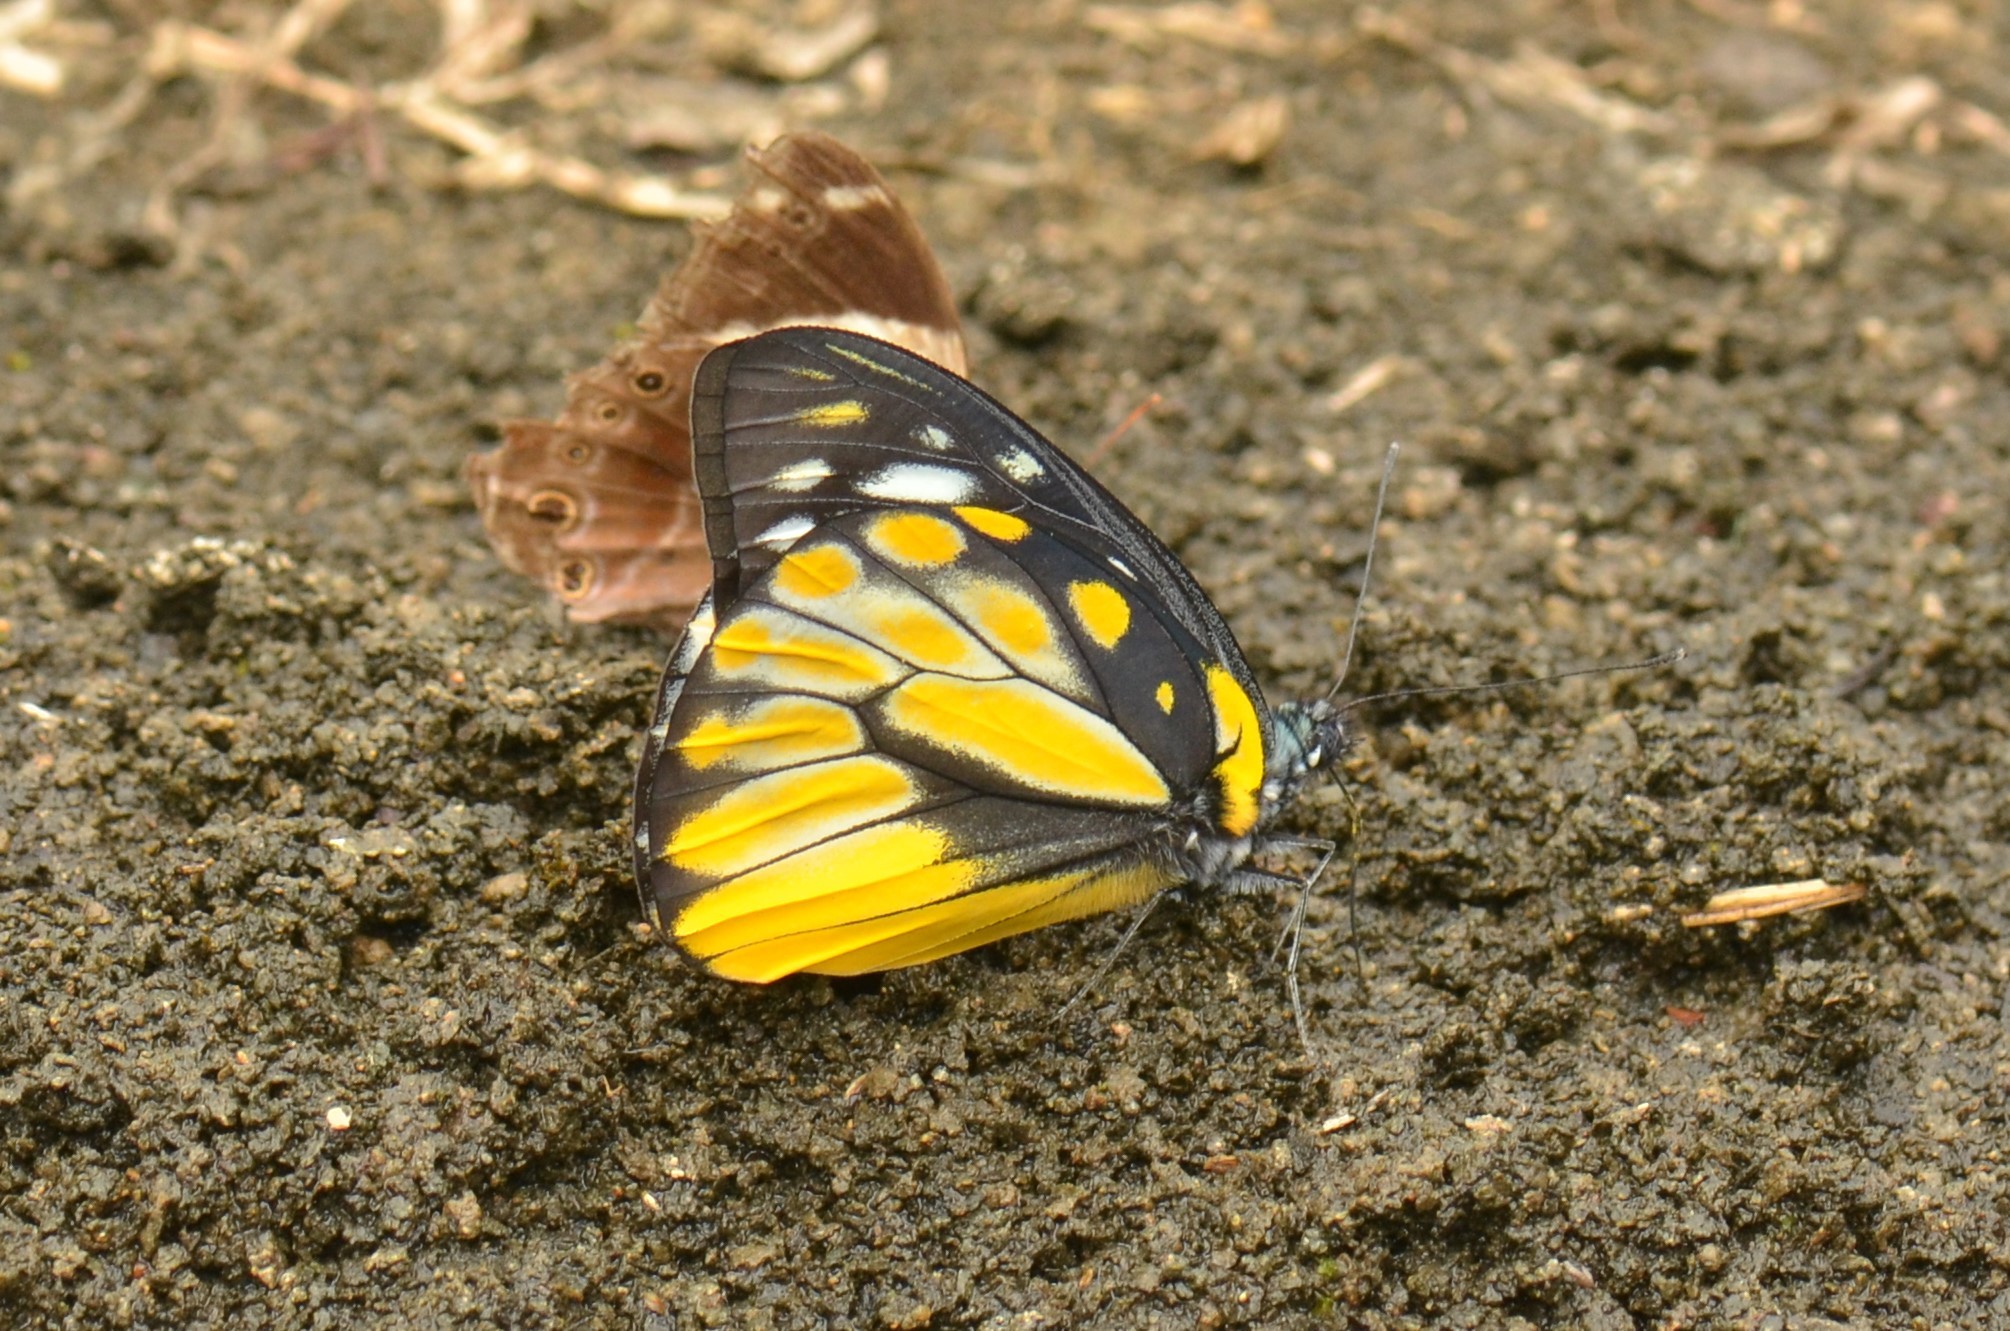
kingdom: Animalia
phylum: Arthropoda
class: Insecta
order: Lepidoptera
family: Pieridae
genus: Prioneris
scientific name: Prioneris thestylis
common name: Spotted sawtooth
